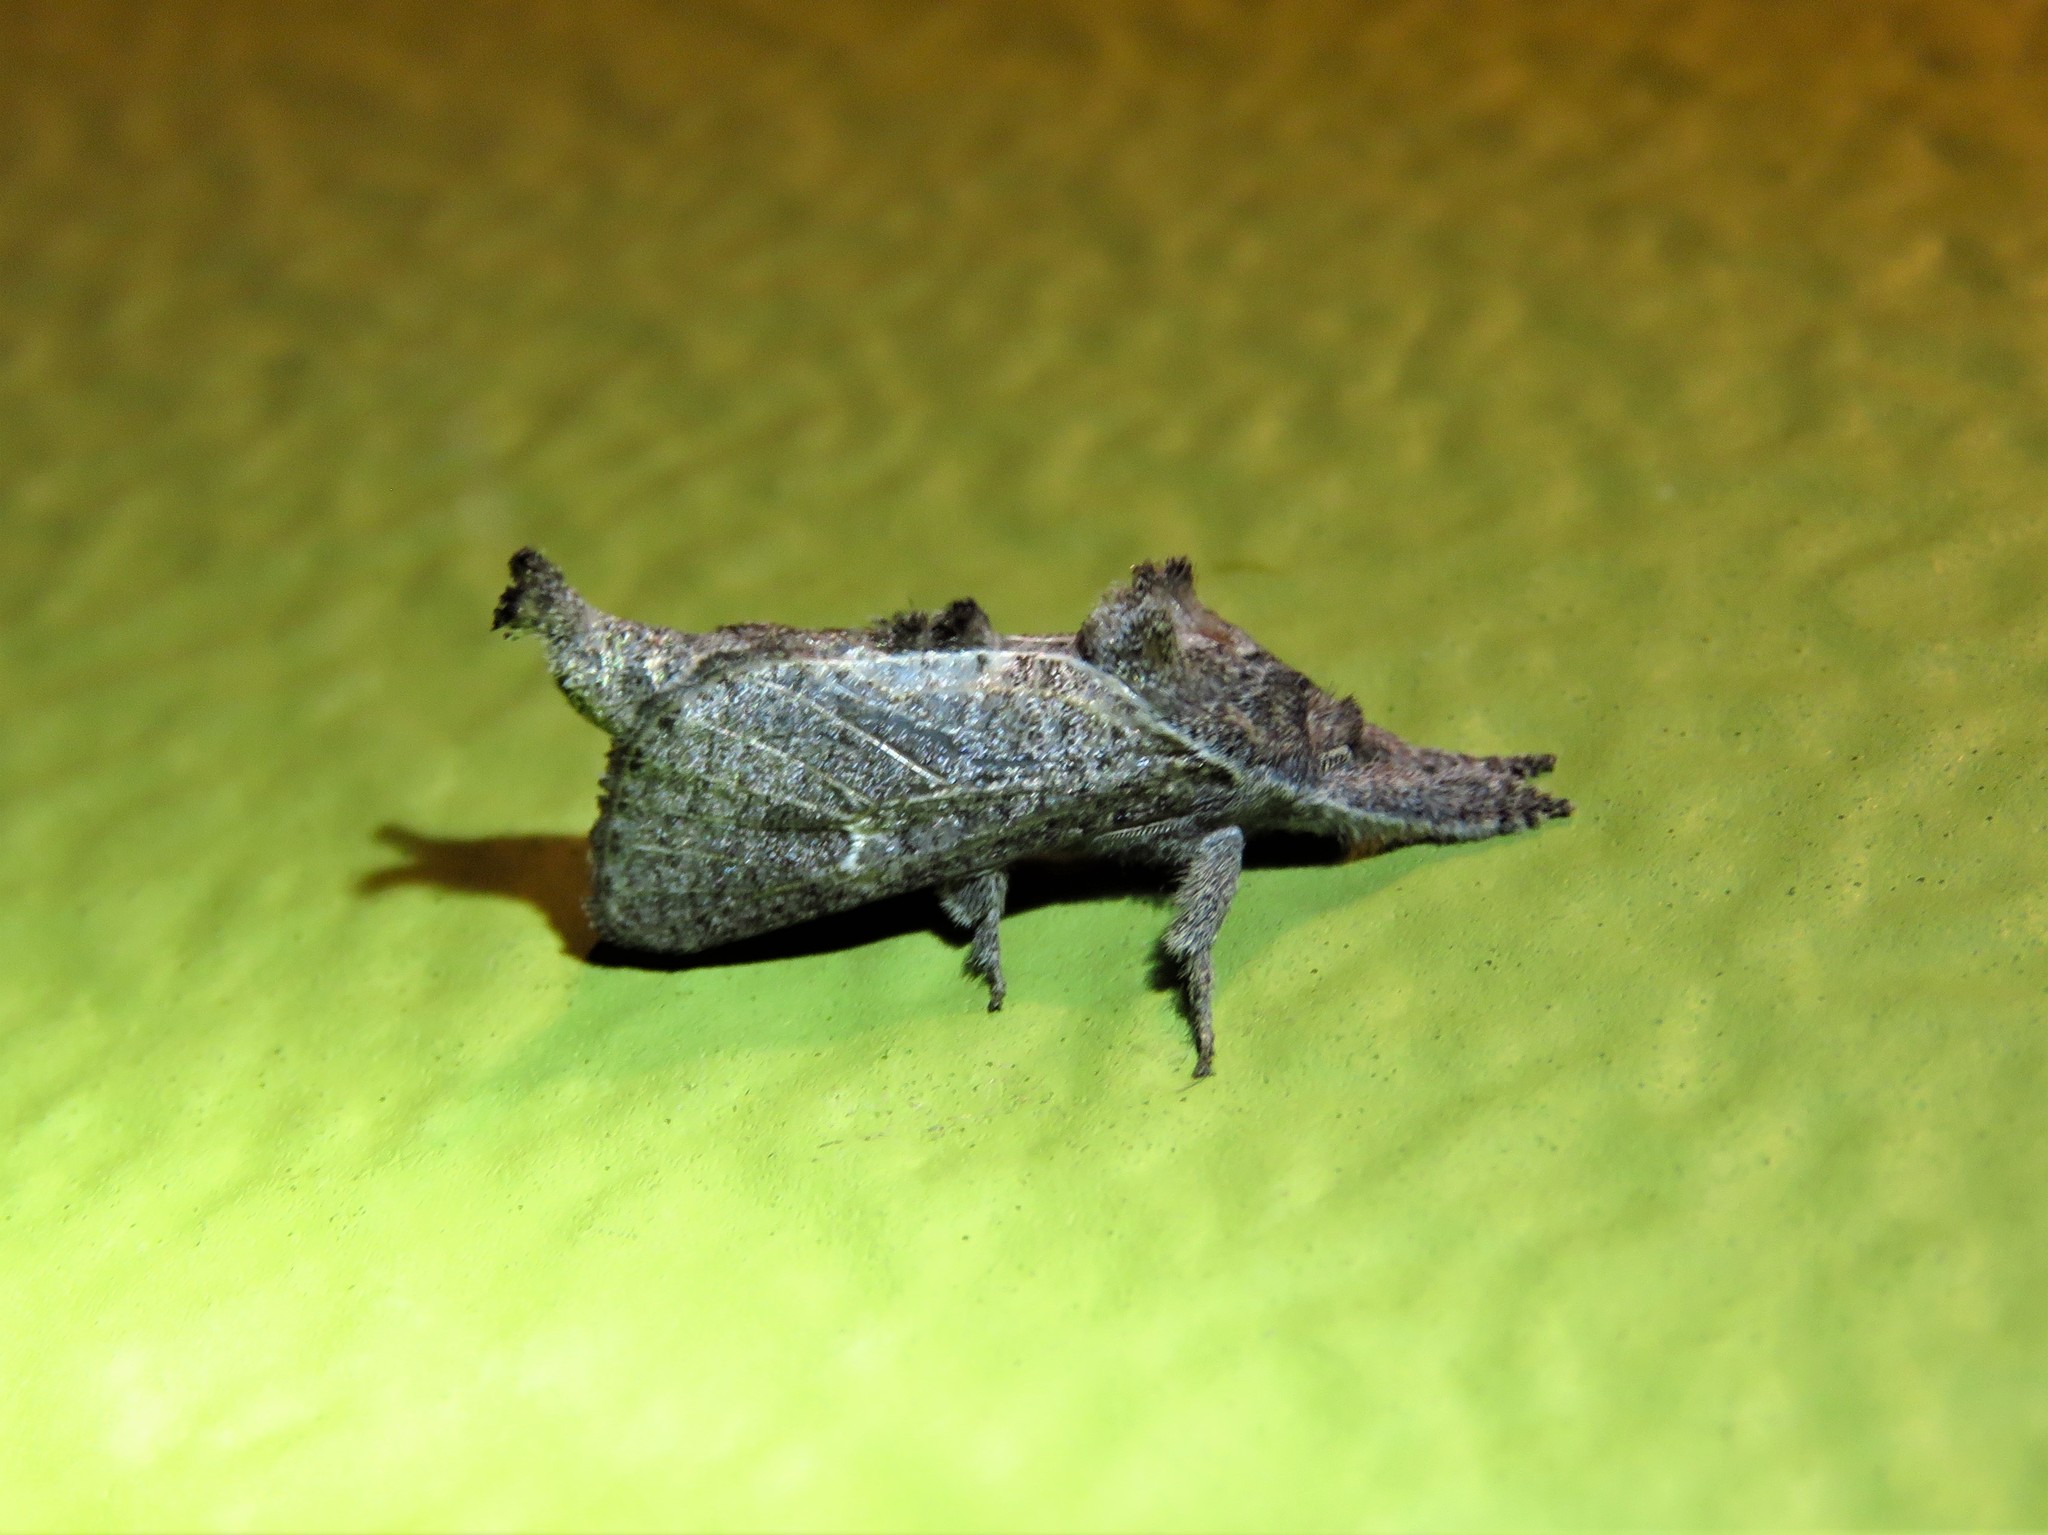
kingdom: Animalia
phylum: Arthropoda
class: Insecta
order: Lepidoptera
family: Cossidae
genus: Givira
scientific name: Givira anna
